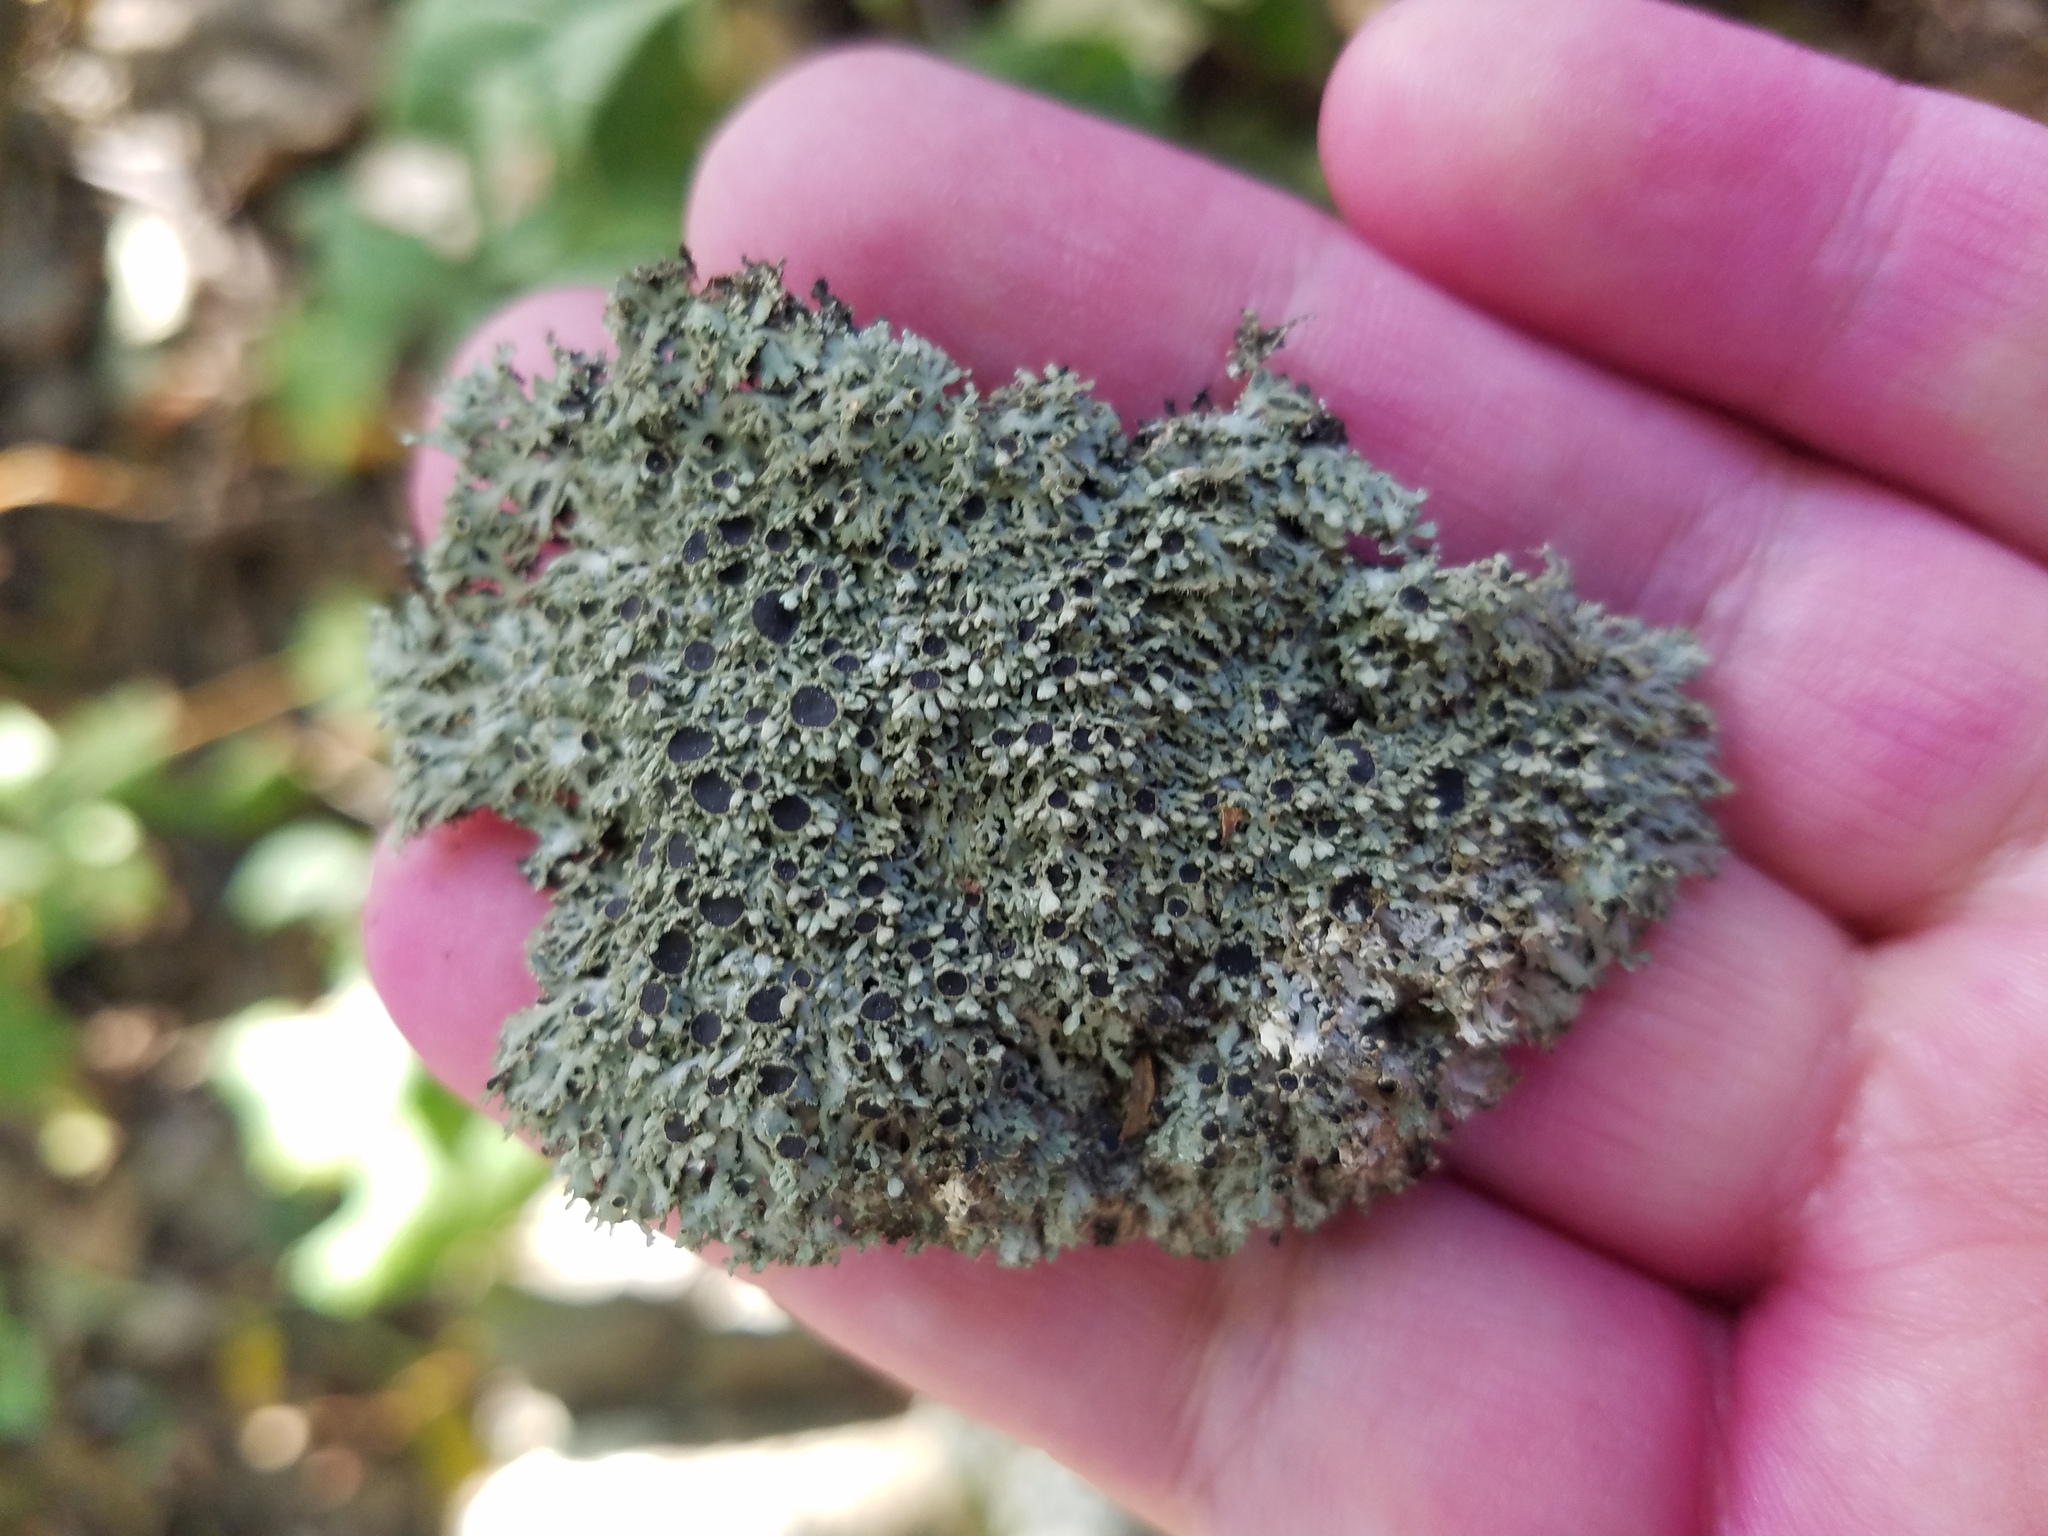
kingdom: Fungi
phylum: Ascomycota
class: Lecanoromycetes
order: Caliciales
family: Physciaceae
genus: Kurokawia
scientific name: Kurokawia palmulata
